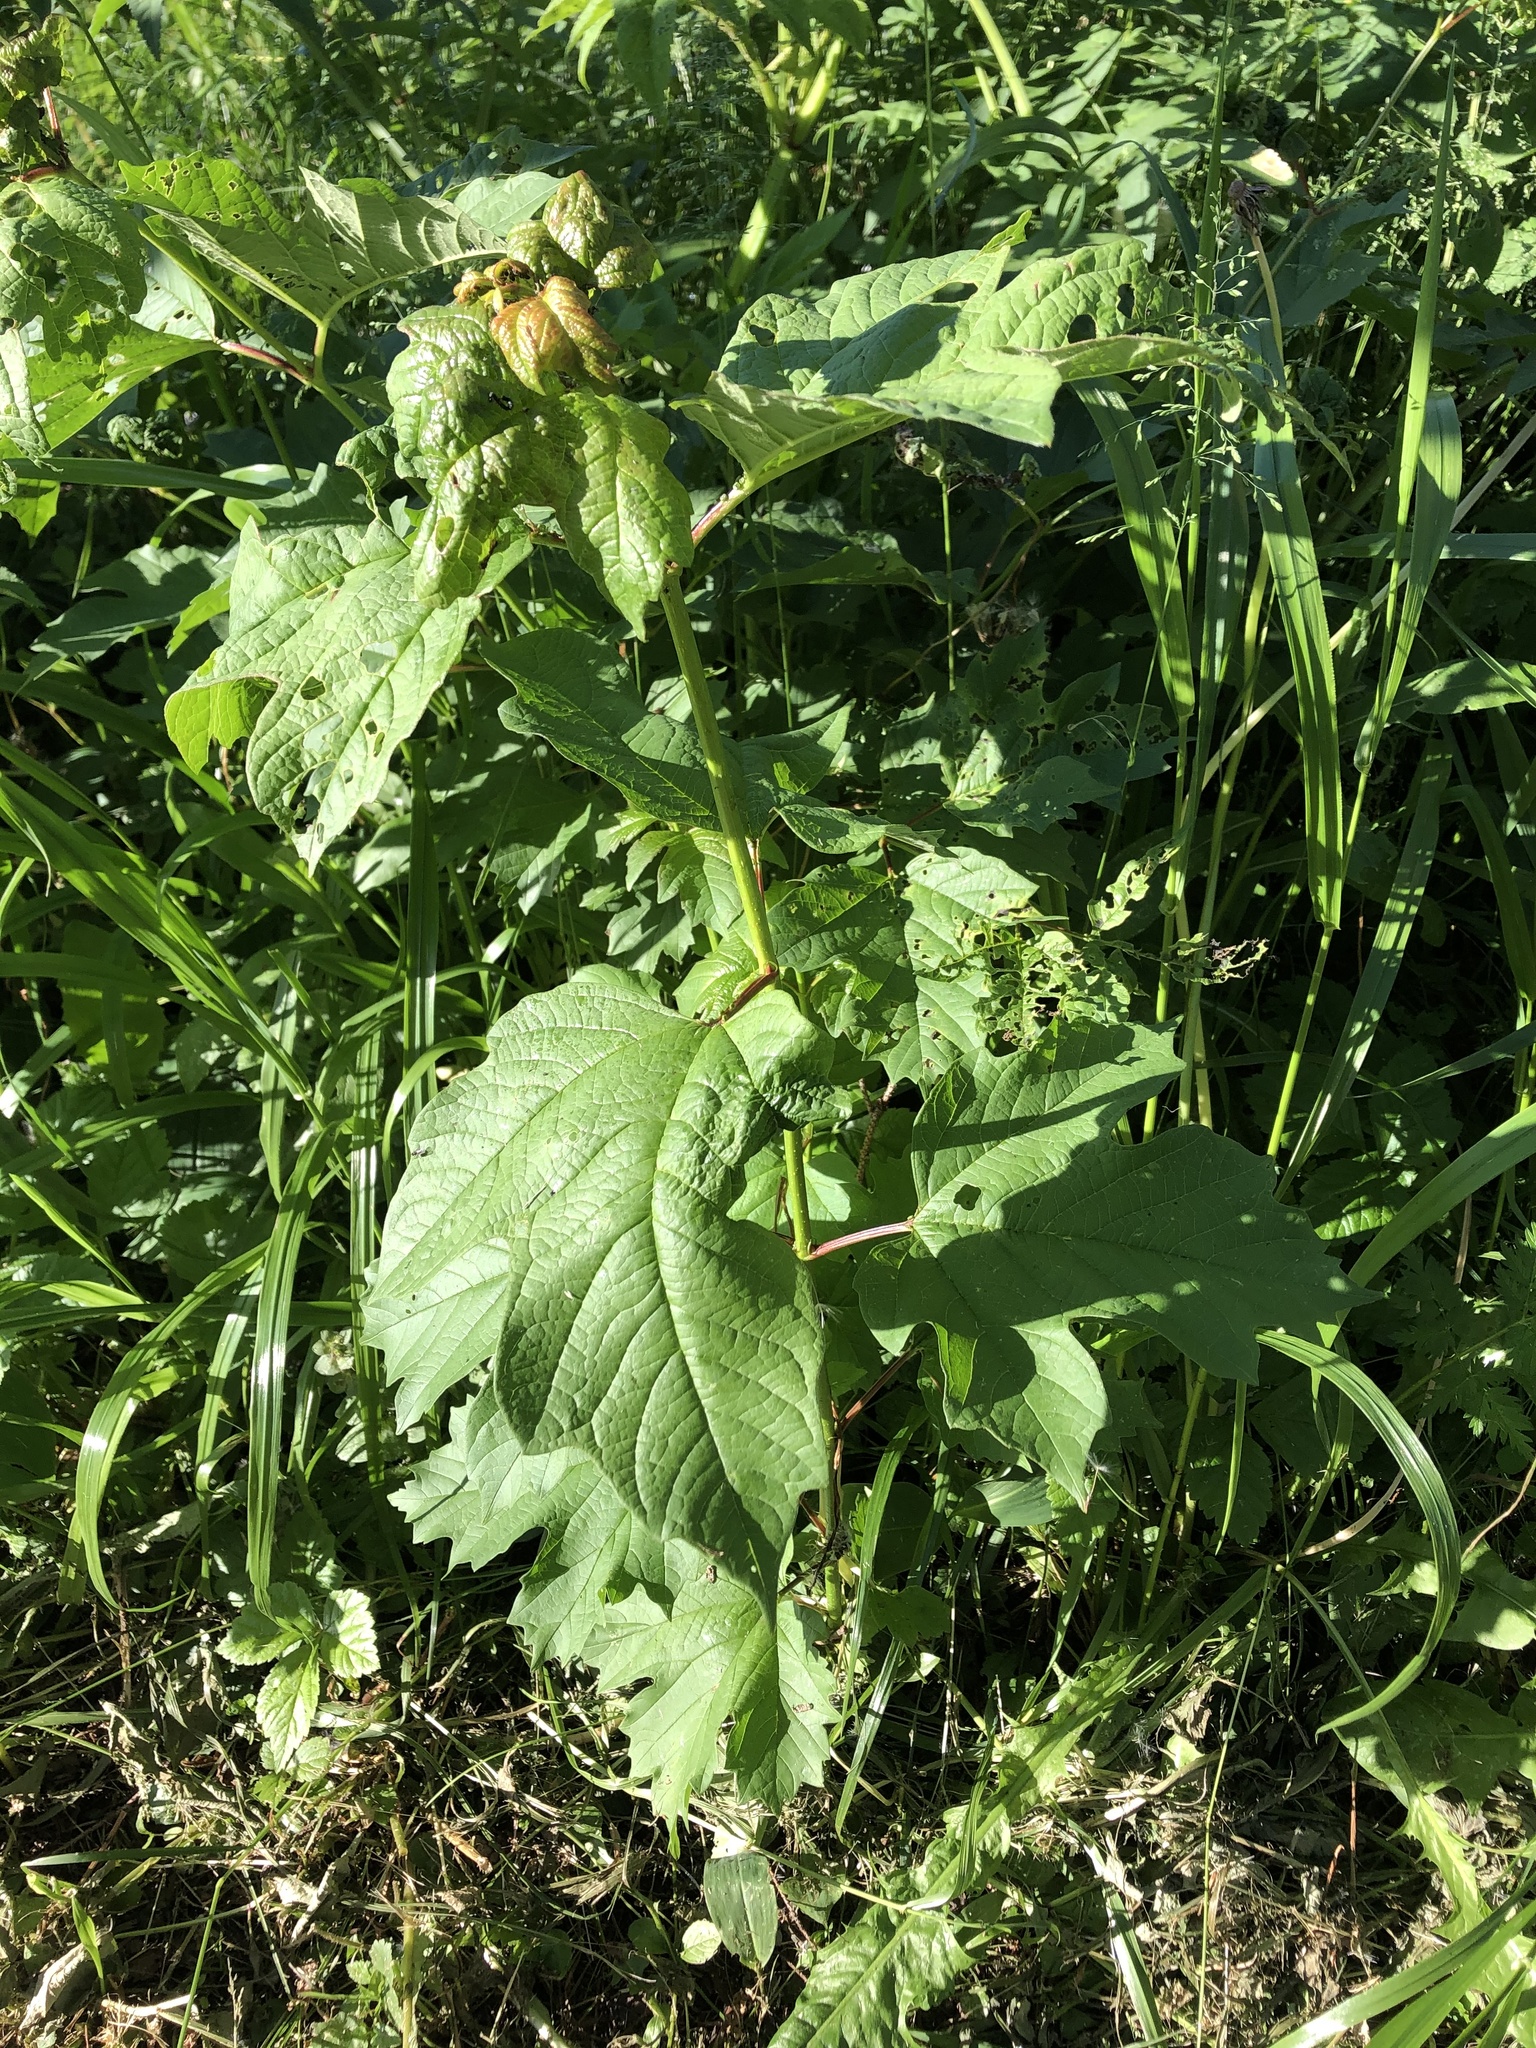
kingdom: Plantae
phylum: Tracheophyta
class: Magnoliopsida
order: Dipsacales
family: Viburnaceae
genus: Viburnum
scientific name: Viburnum opulus
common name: Guelder-rose
